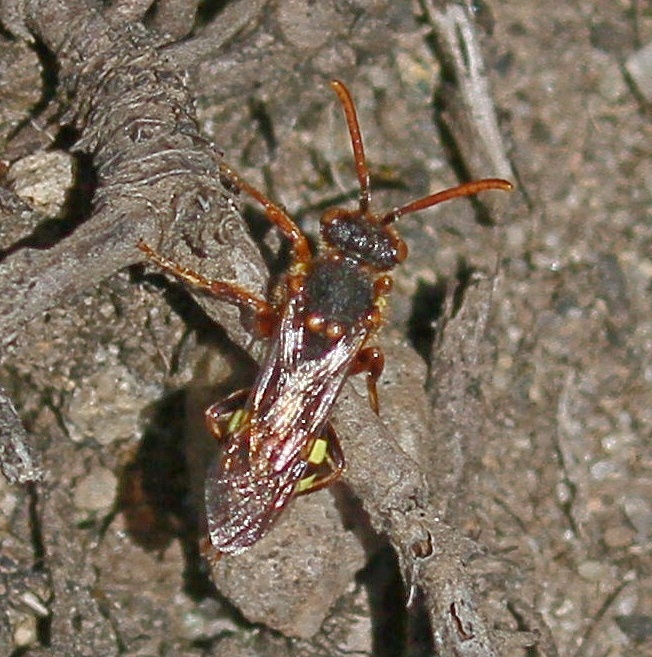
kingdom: Animalia
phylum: Arthropoda
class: Insecta
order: Hymenoptera
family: Apidae
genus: Nomada
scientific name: Nomada lathburiana
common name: Lathbury's nomad bee
